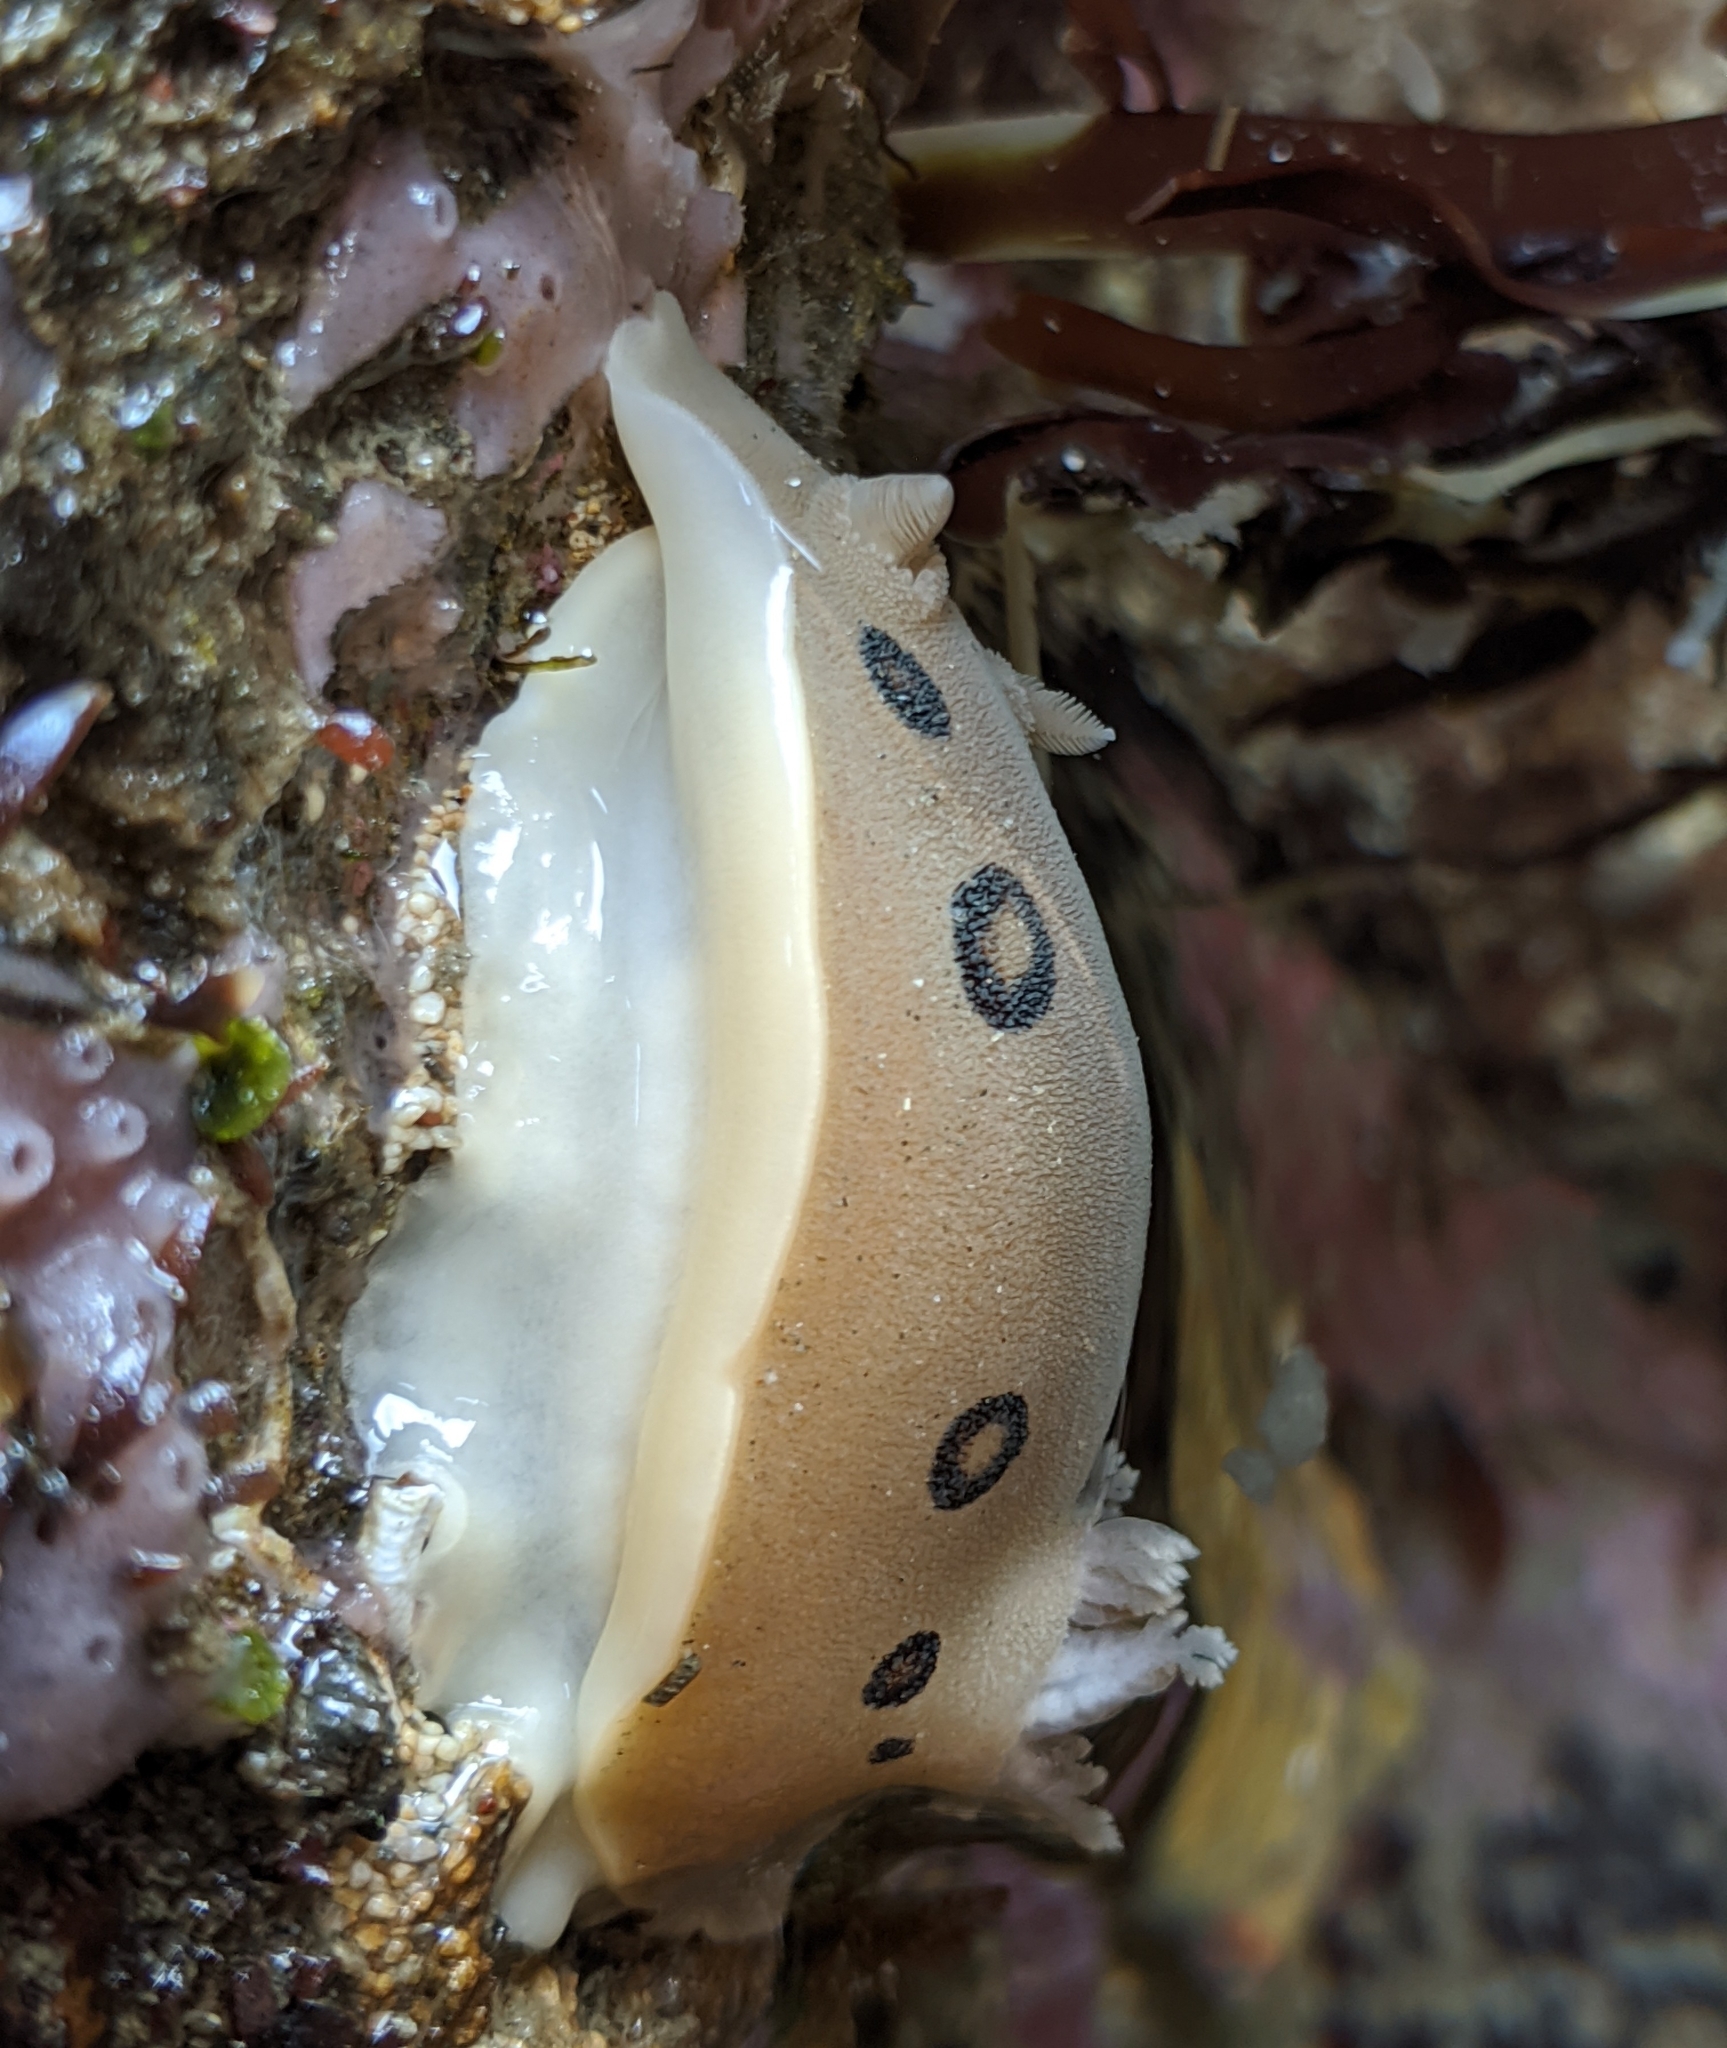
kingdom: Animalia
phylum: Mollusca
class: Gastropoda
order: Nudibranchia
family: Discodorididae
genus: Diaulula
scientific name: Diaulula sandiegensis
